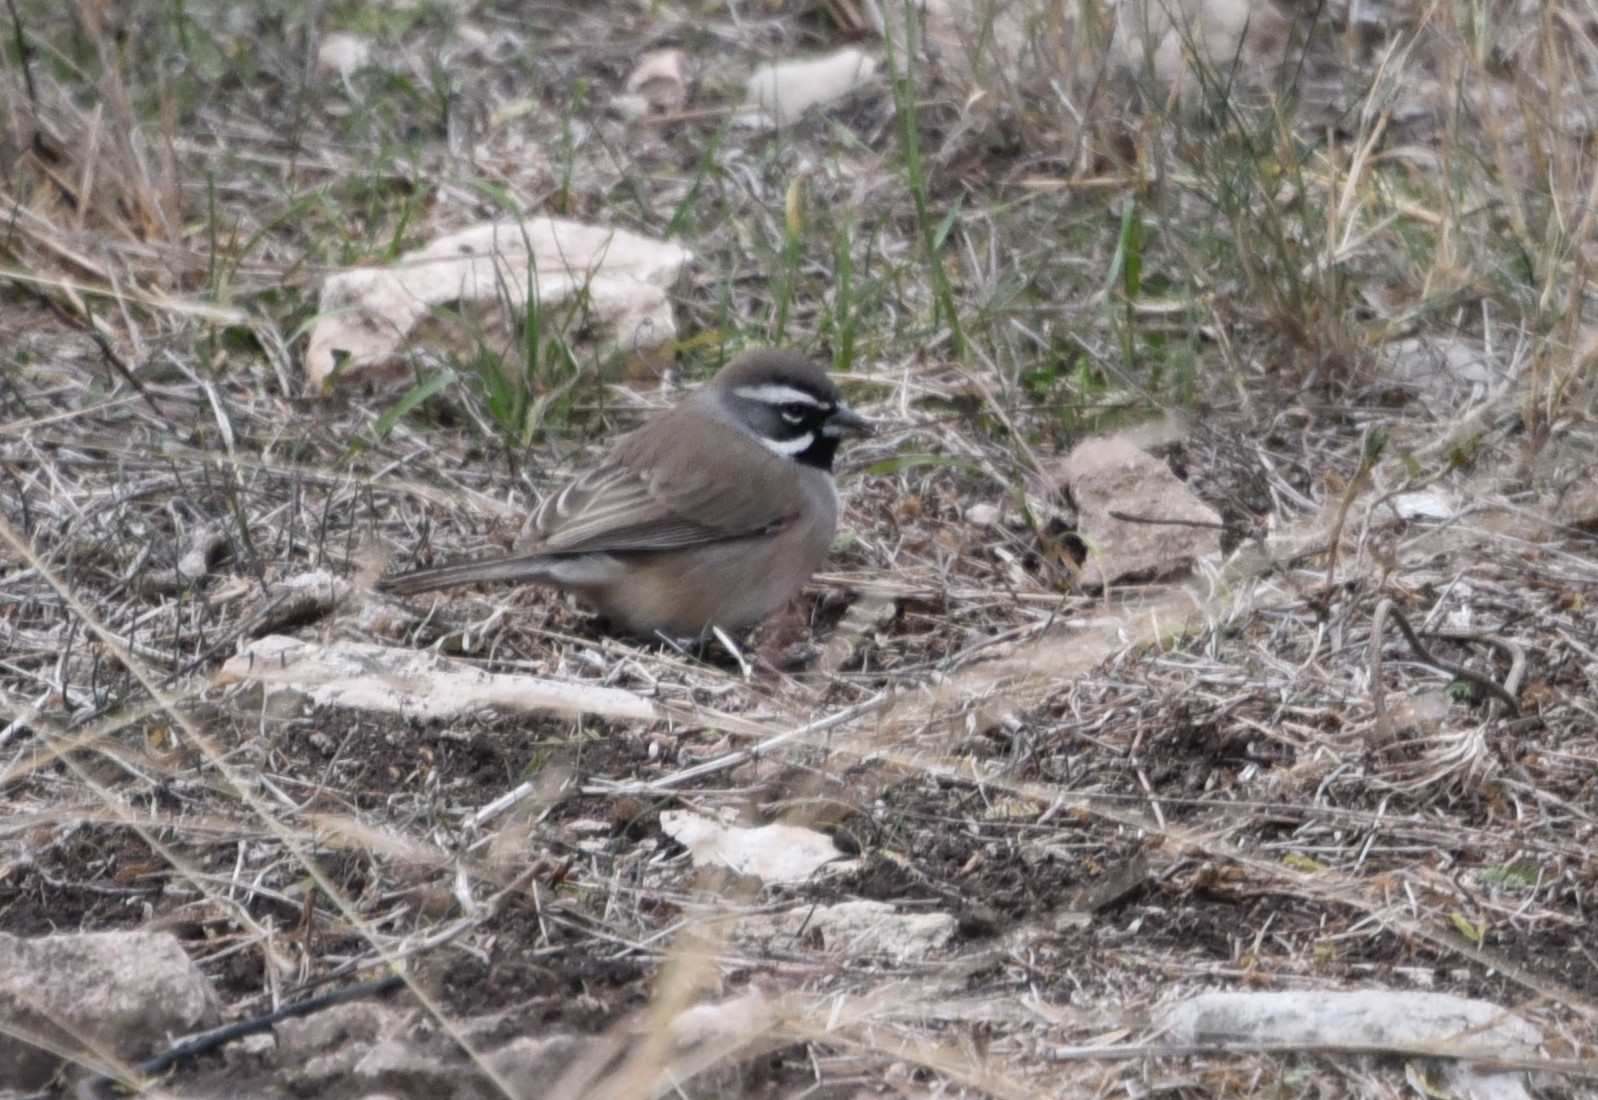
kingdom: Animalia
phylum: Chordata
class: Aves
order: Passeriformes
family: Passerellidae
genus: Amphispiza
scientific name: Amphispiza bilineata
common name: Black-throated sparrow
